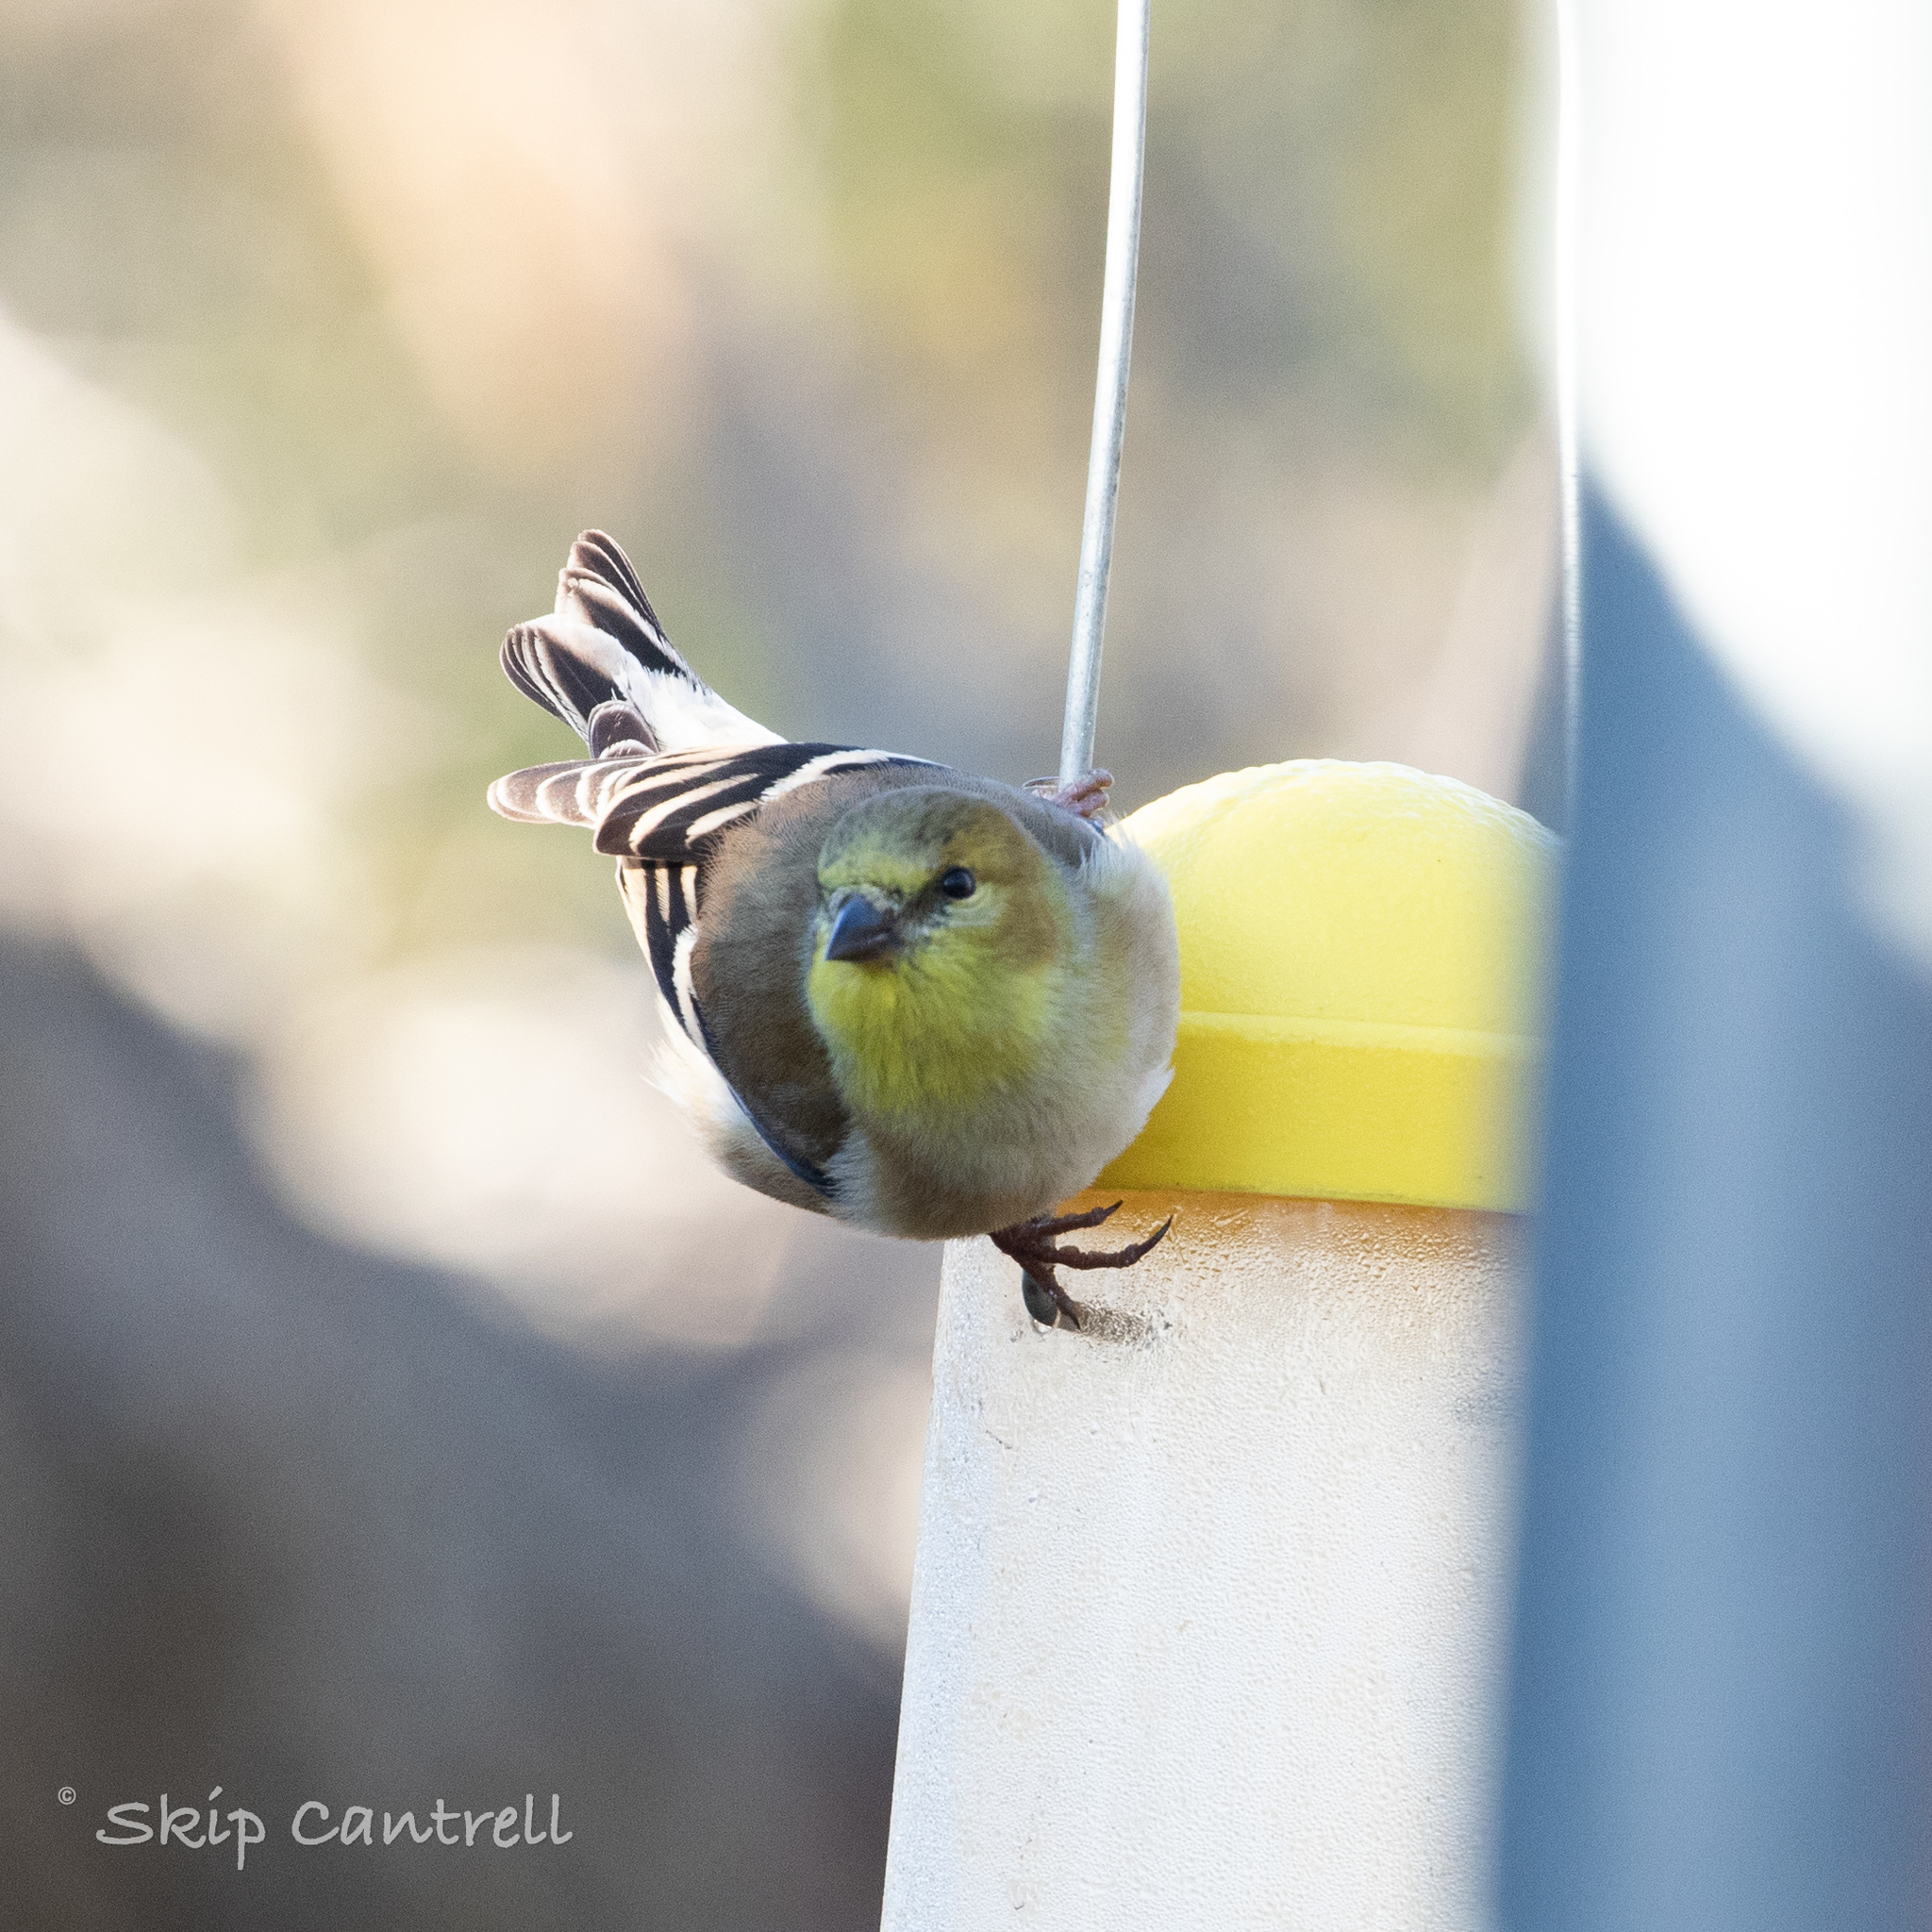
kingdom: Animalia
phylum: Chordata
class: Aves
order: Passeriformes
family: Fringillidae
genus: Spinus
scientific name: Spinus tristis
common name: American goldfinch
